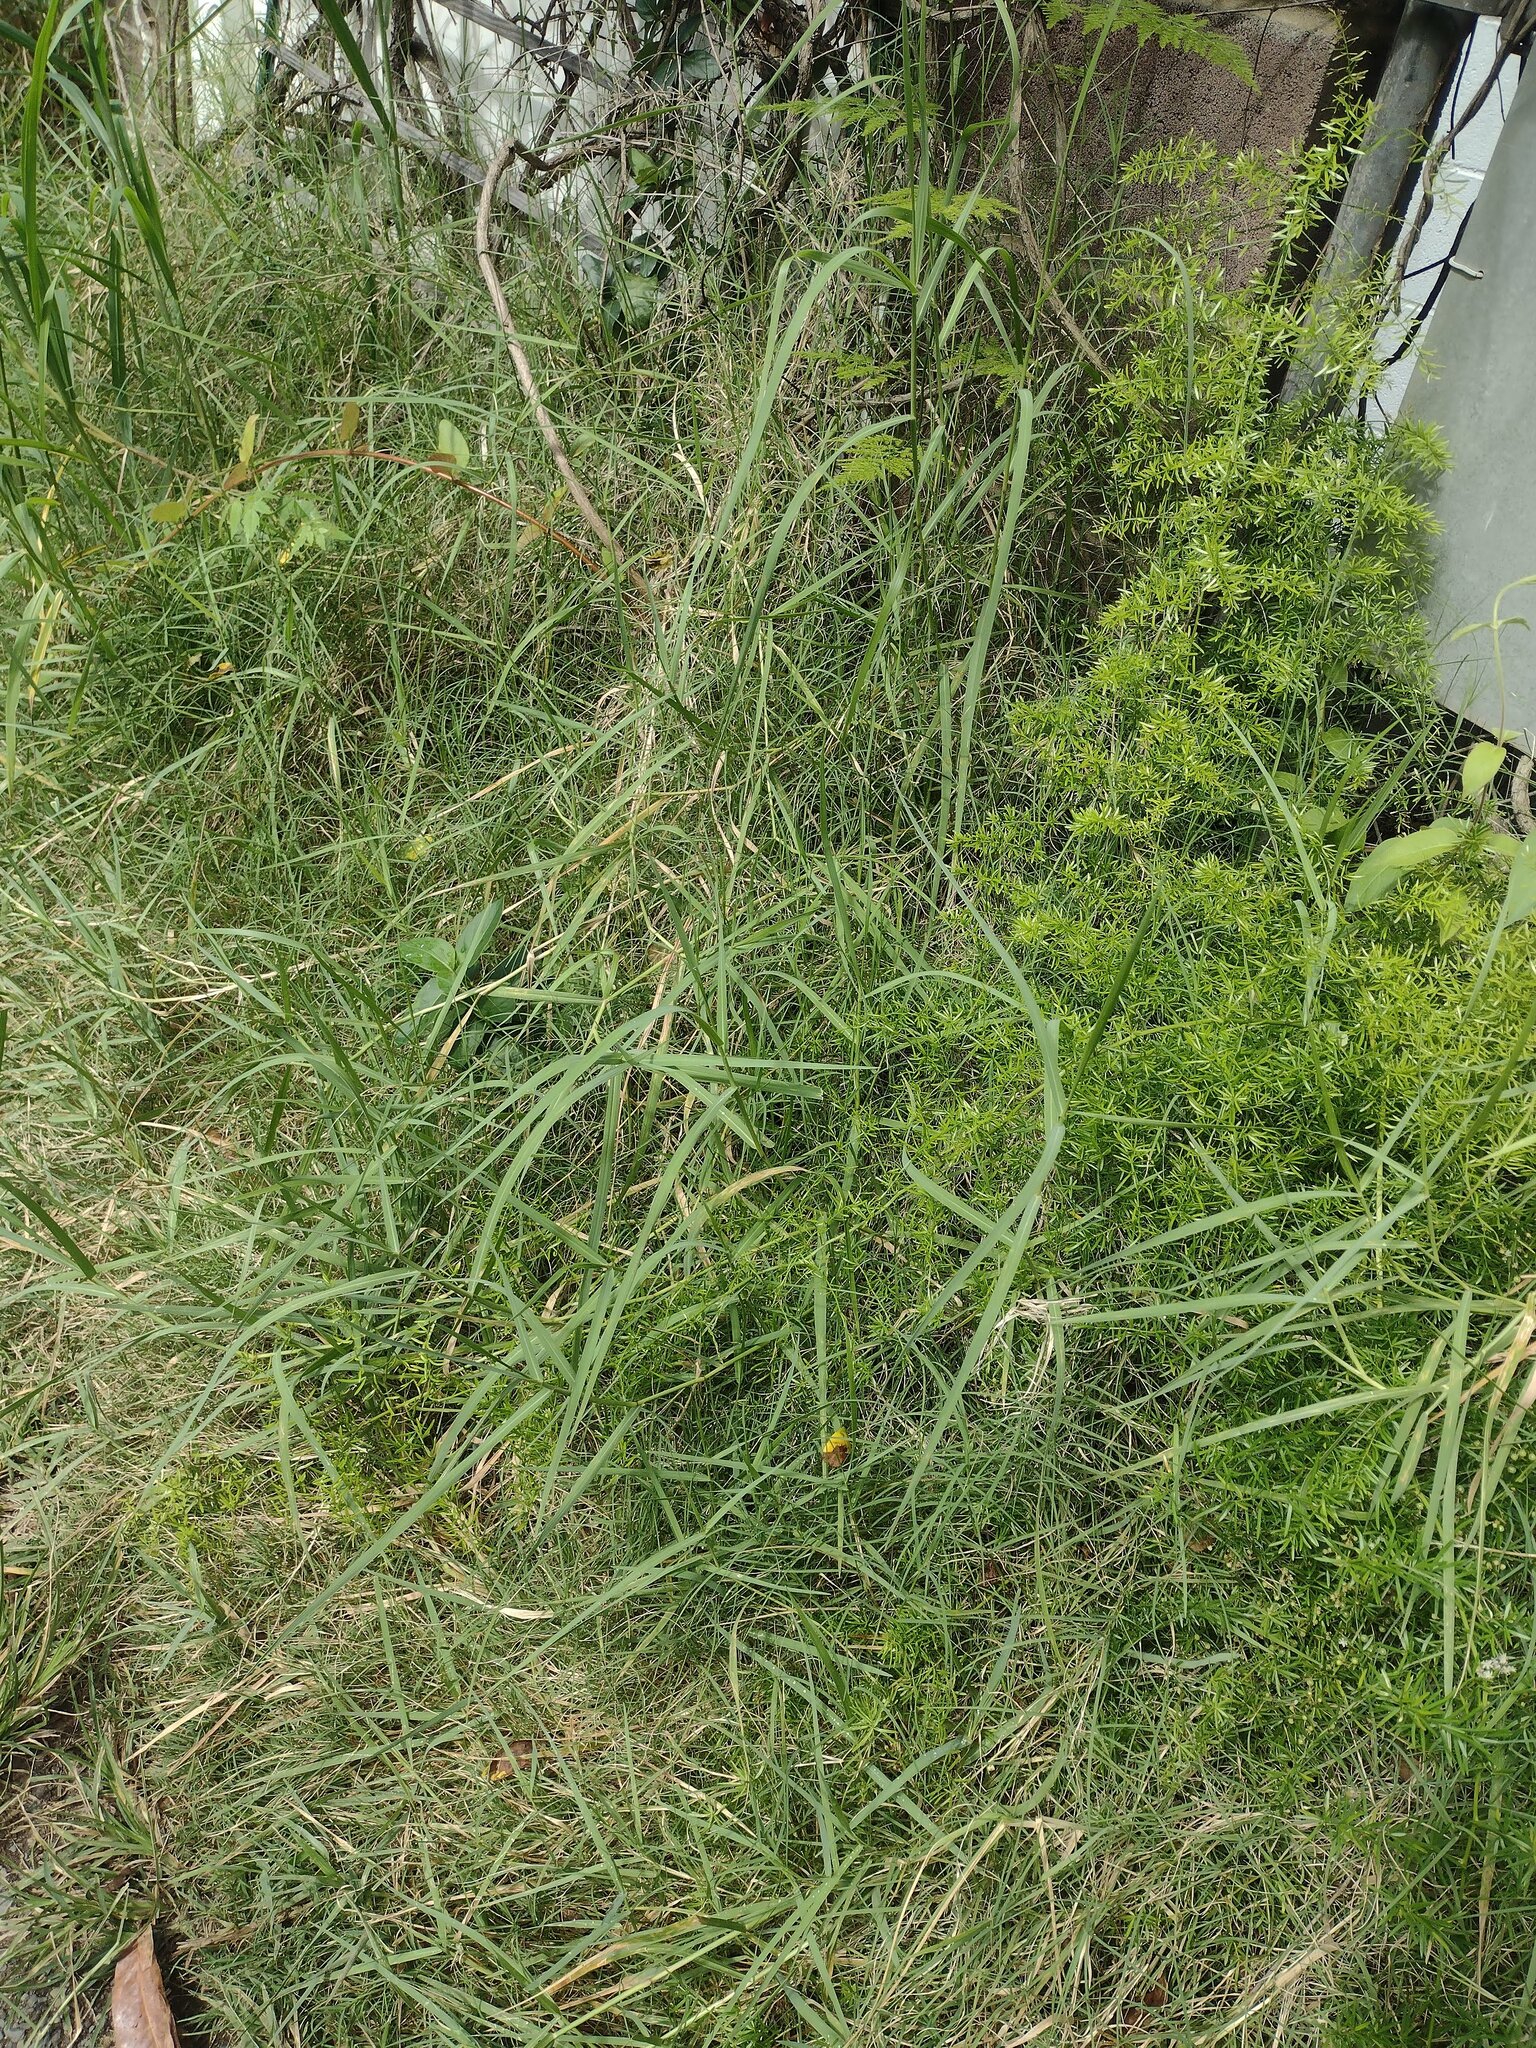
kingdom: Plantae
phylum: Tracheophyta
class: Liliopsida
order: Poales
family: Poaceae
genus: Panicum
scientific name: Panicum repens
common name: Torpedo grass
